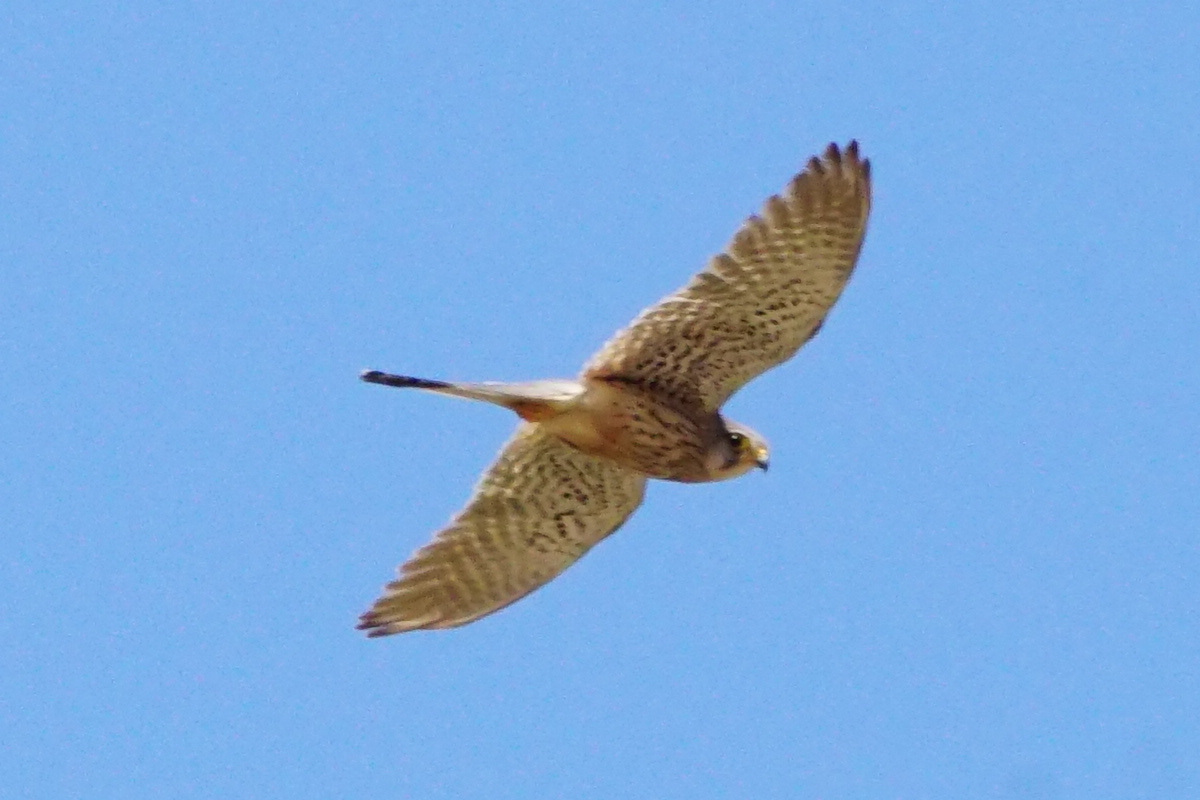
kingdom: Animalia
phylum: Chordata
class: Aves
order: Falconiformes
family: Falconidae
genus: Falco
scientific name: Falco tinnunculus
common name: Common kestrel
